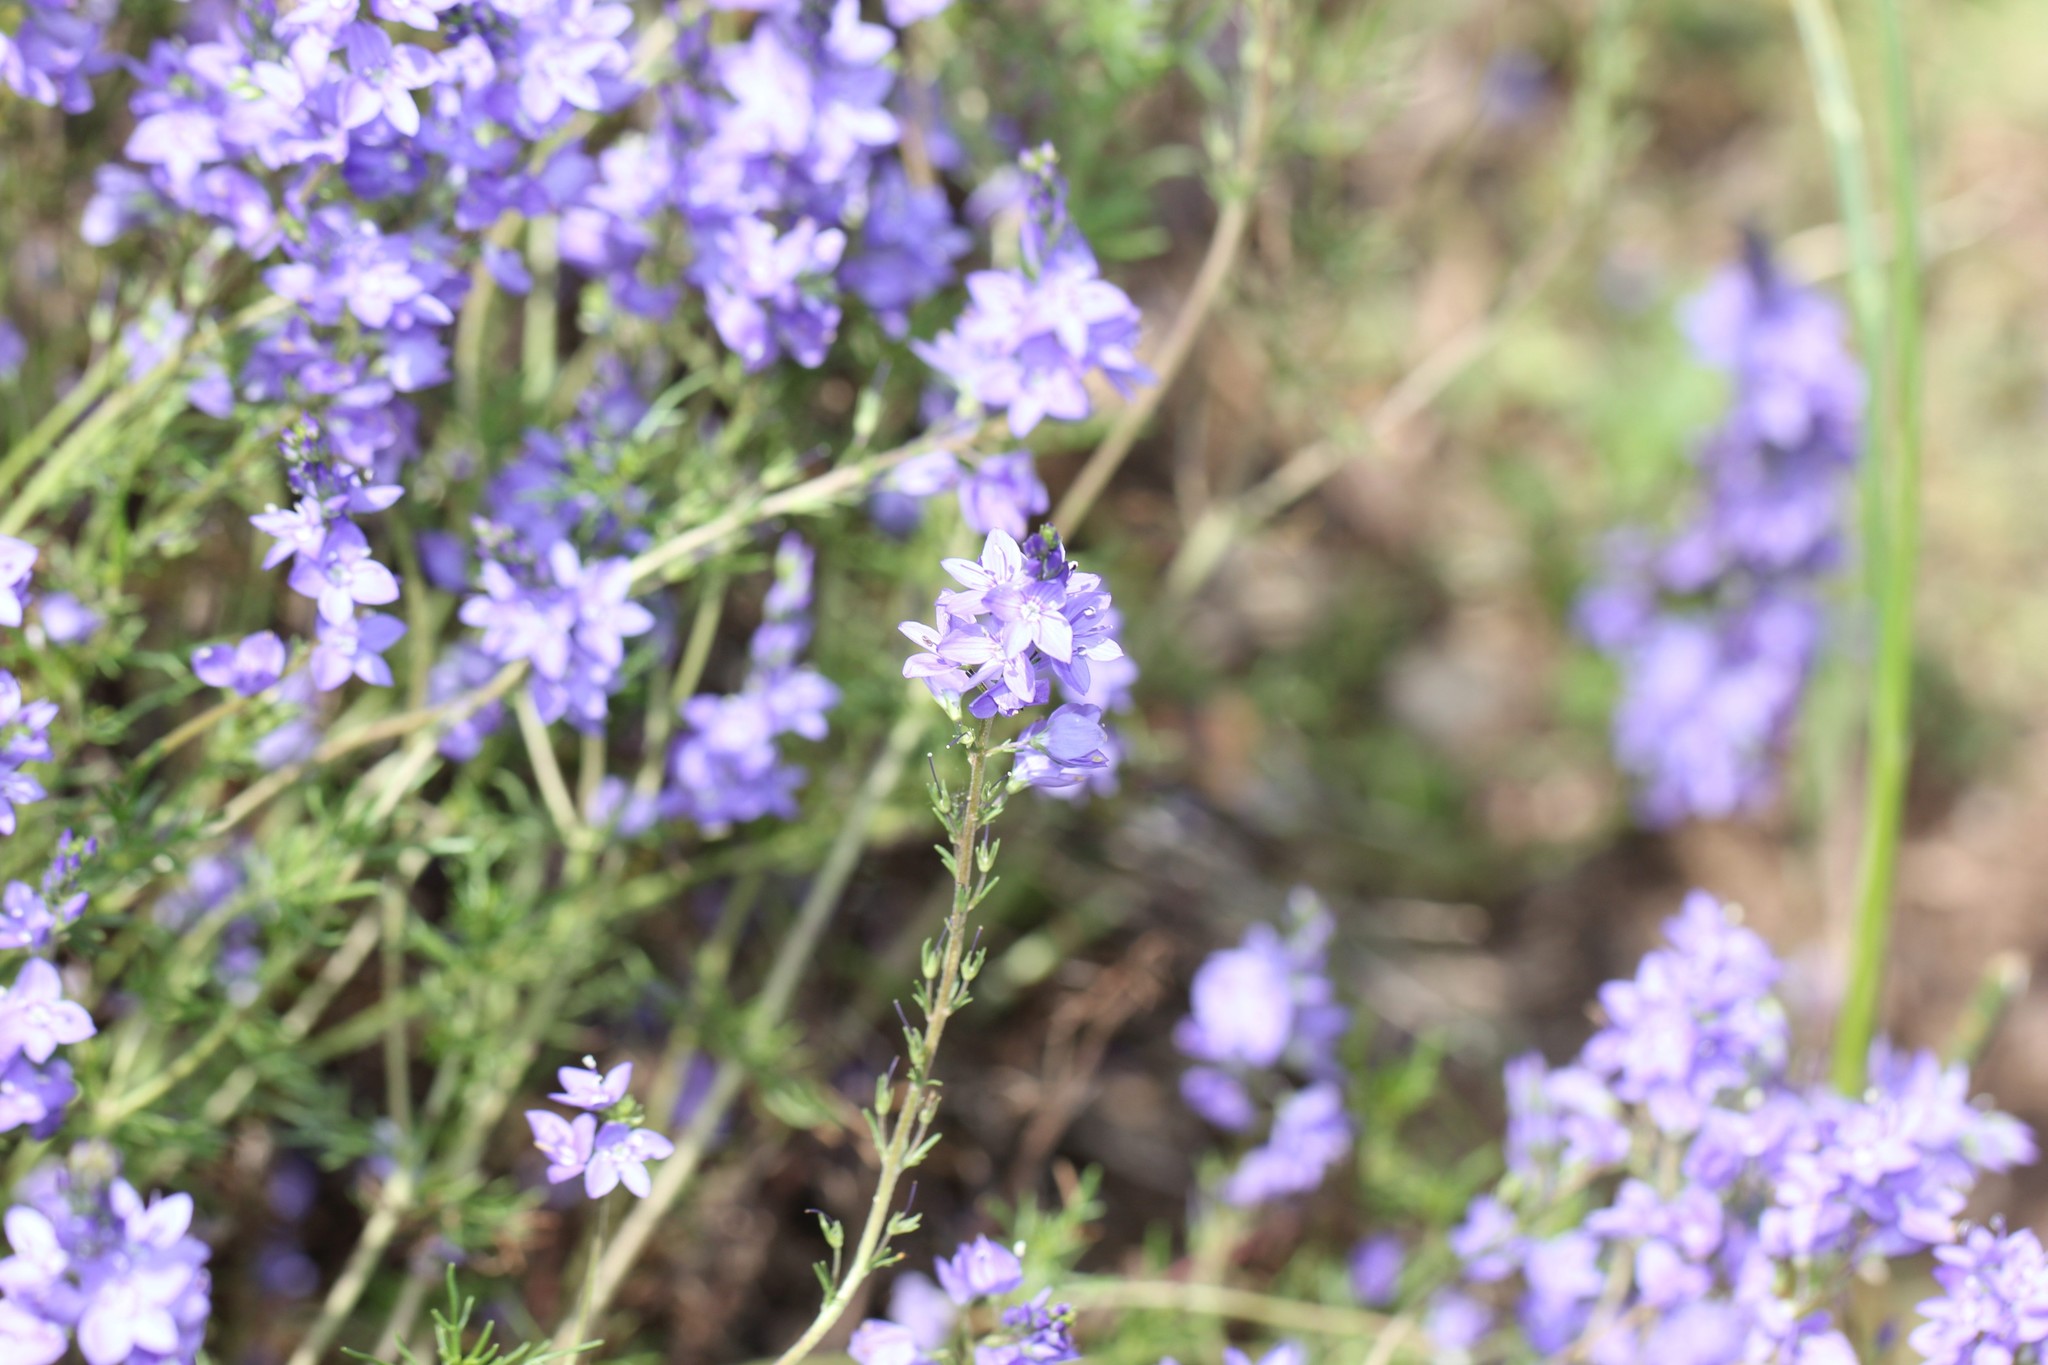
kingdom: Plantae
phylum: Tracheophyta
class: Magnoliopsida
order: Lamiales
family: Plantaginaceae
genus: Veronica
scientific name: Veronica tenuifolia
